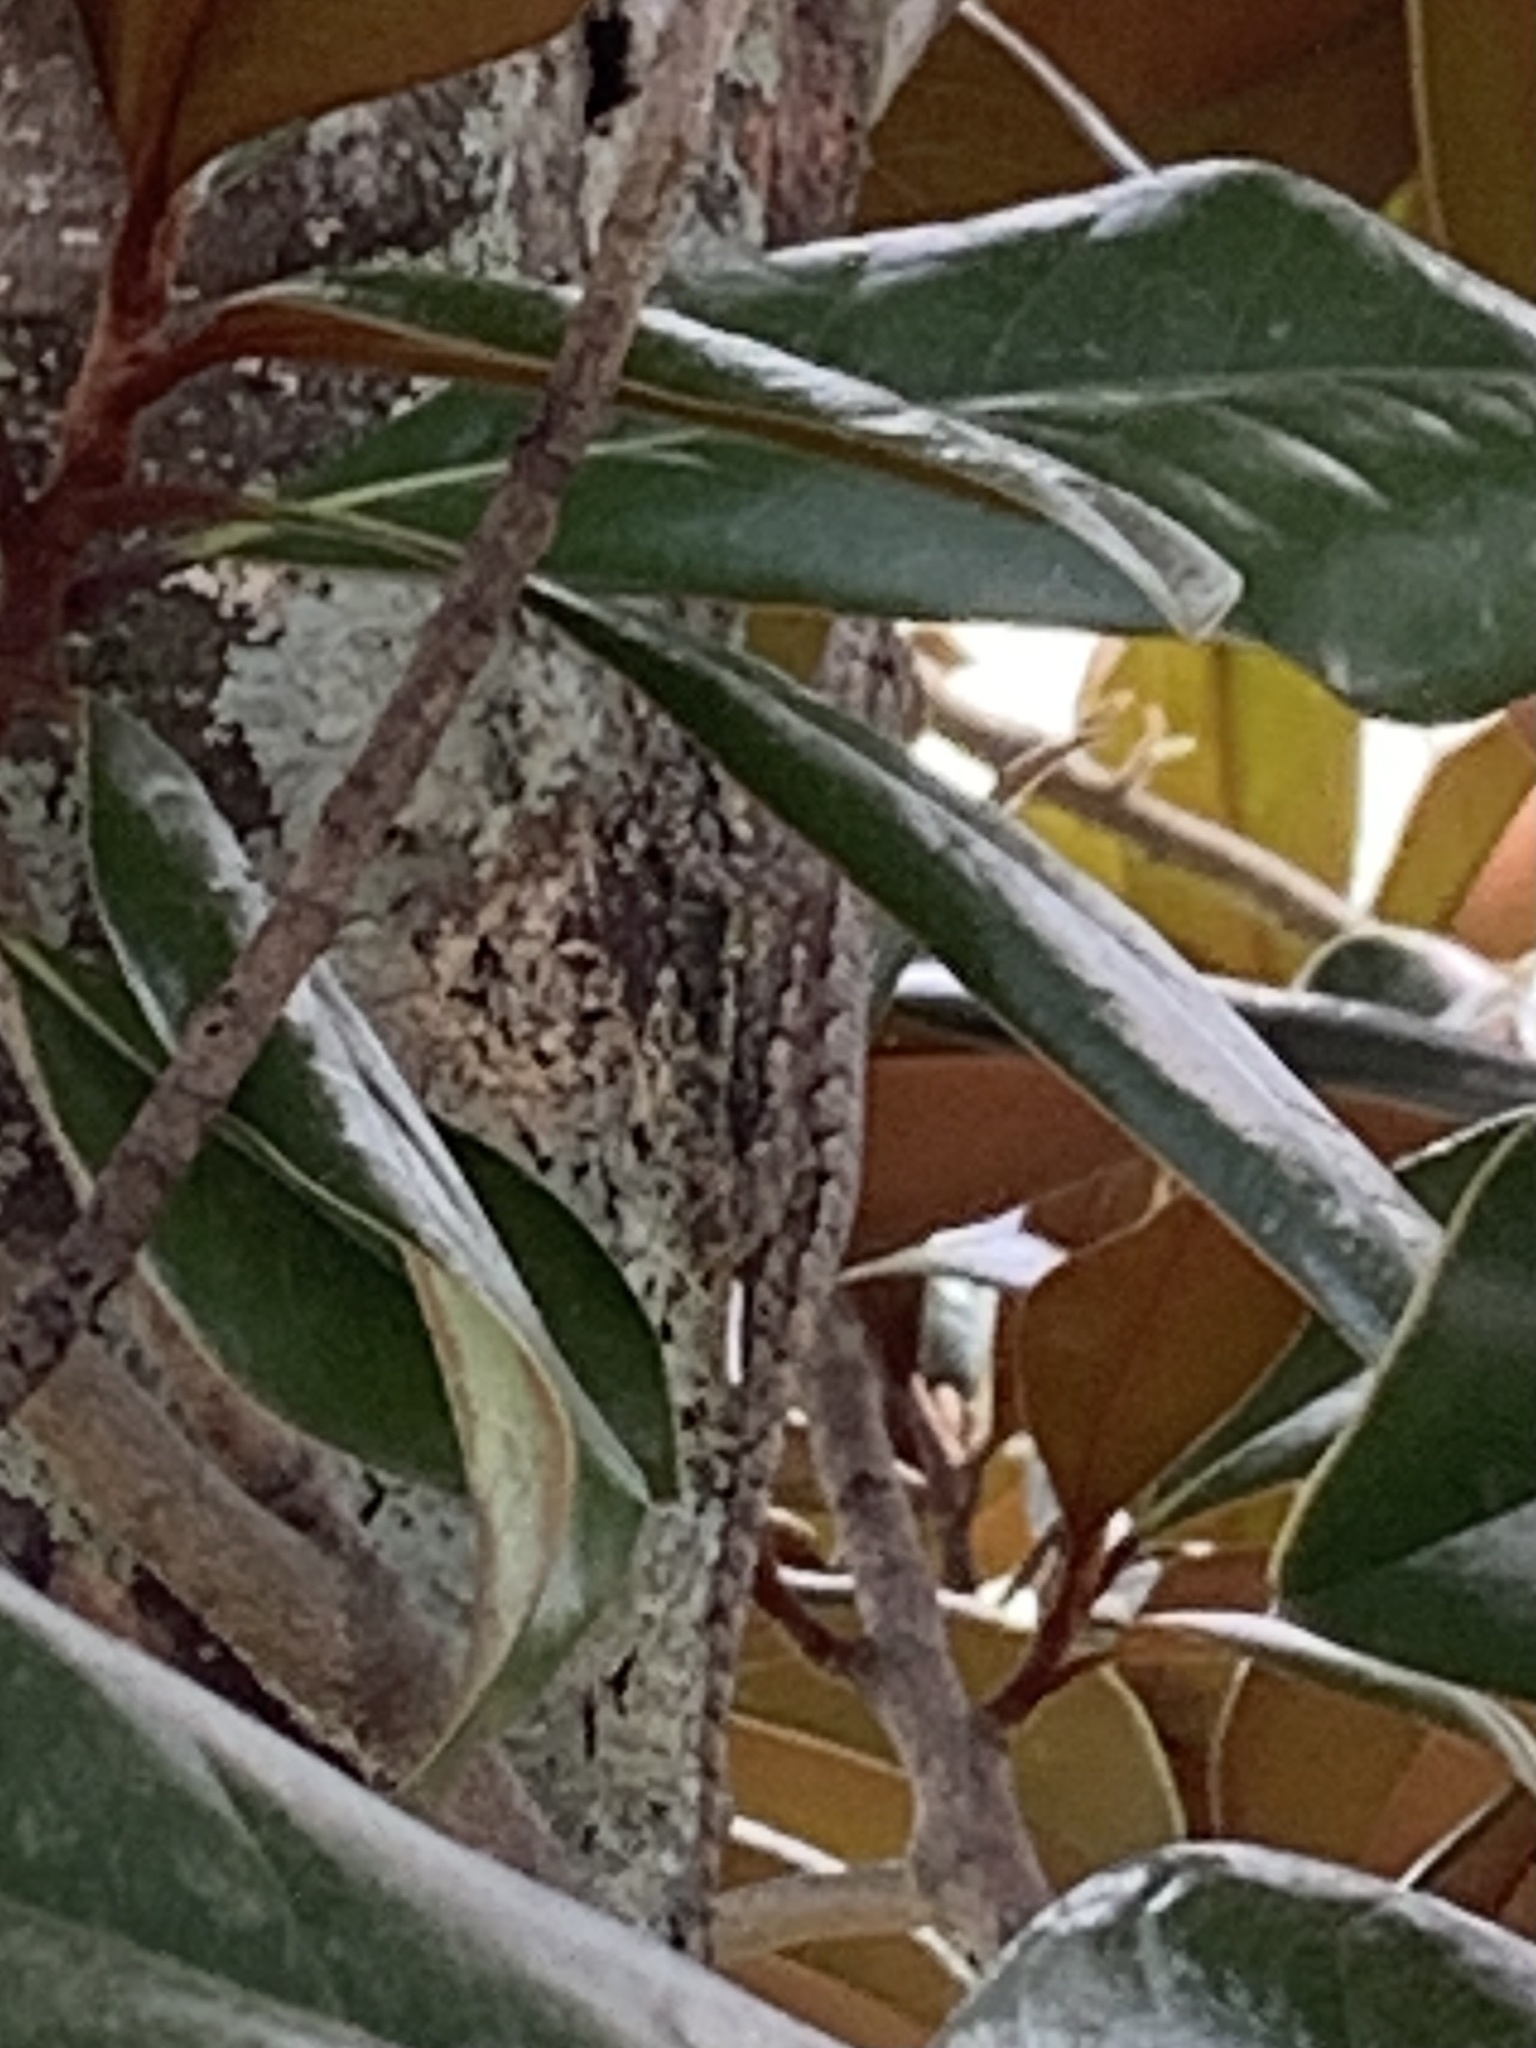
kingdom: Animalia
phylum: Chordata
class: Squamata
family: Phrynosomatidae
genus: Sceloporus
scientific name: Sceloporus undulatus
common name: Eastern fence lizard
